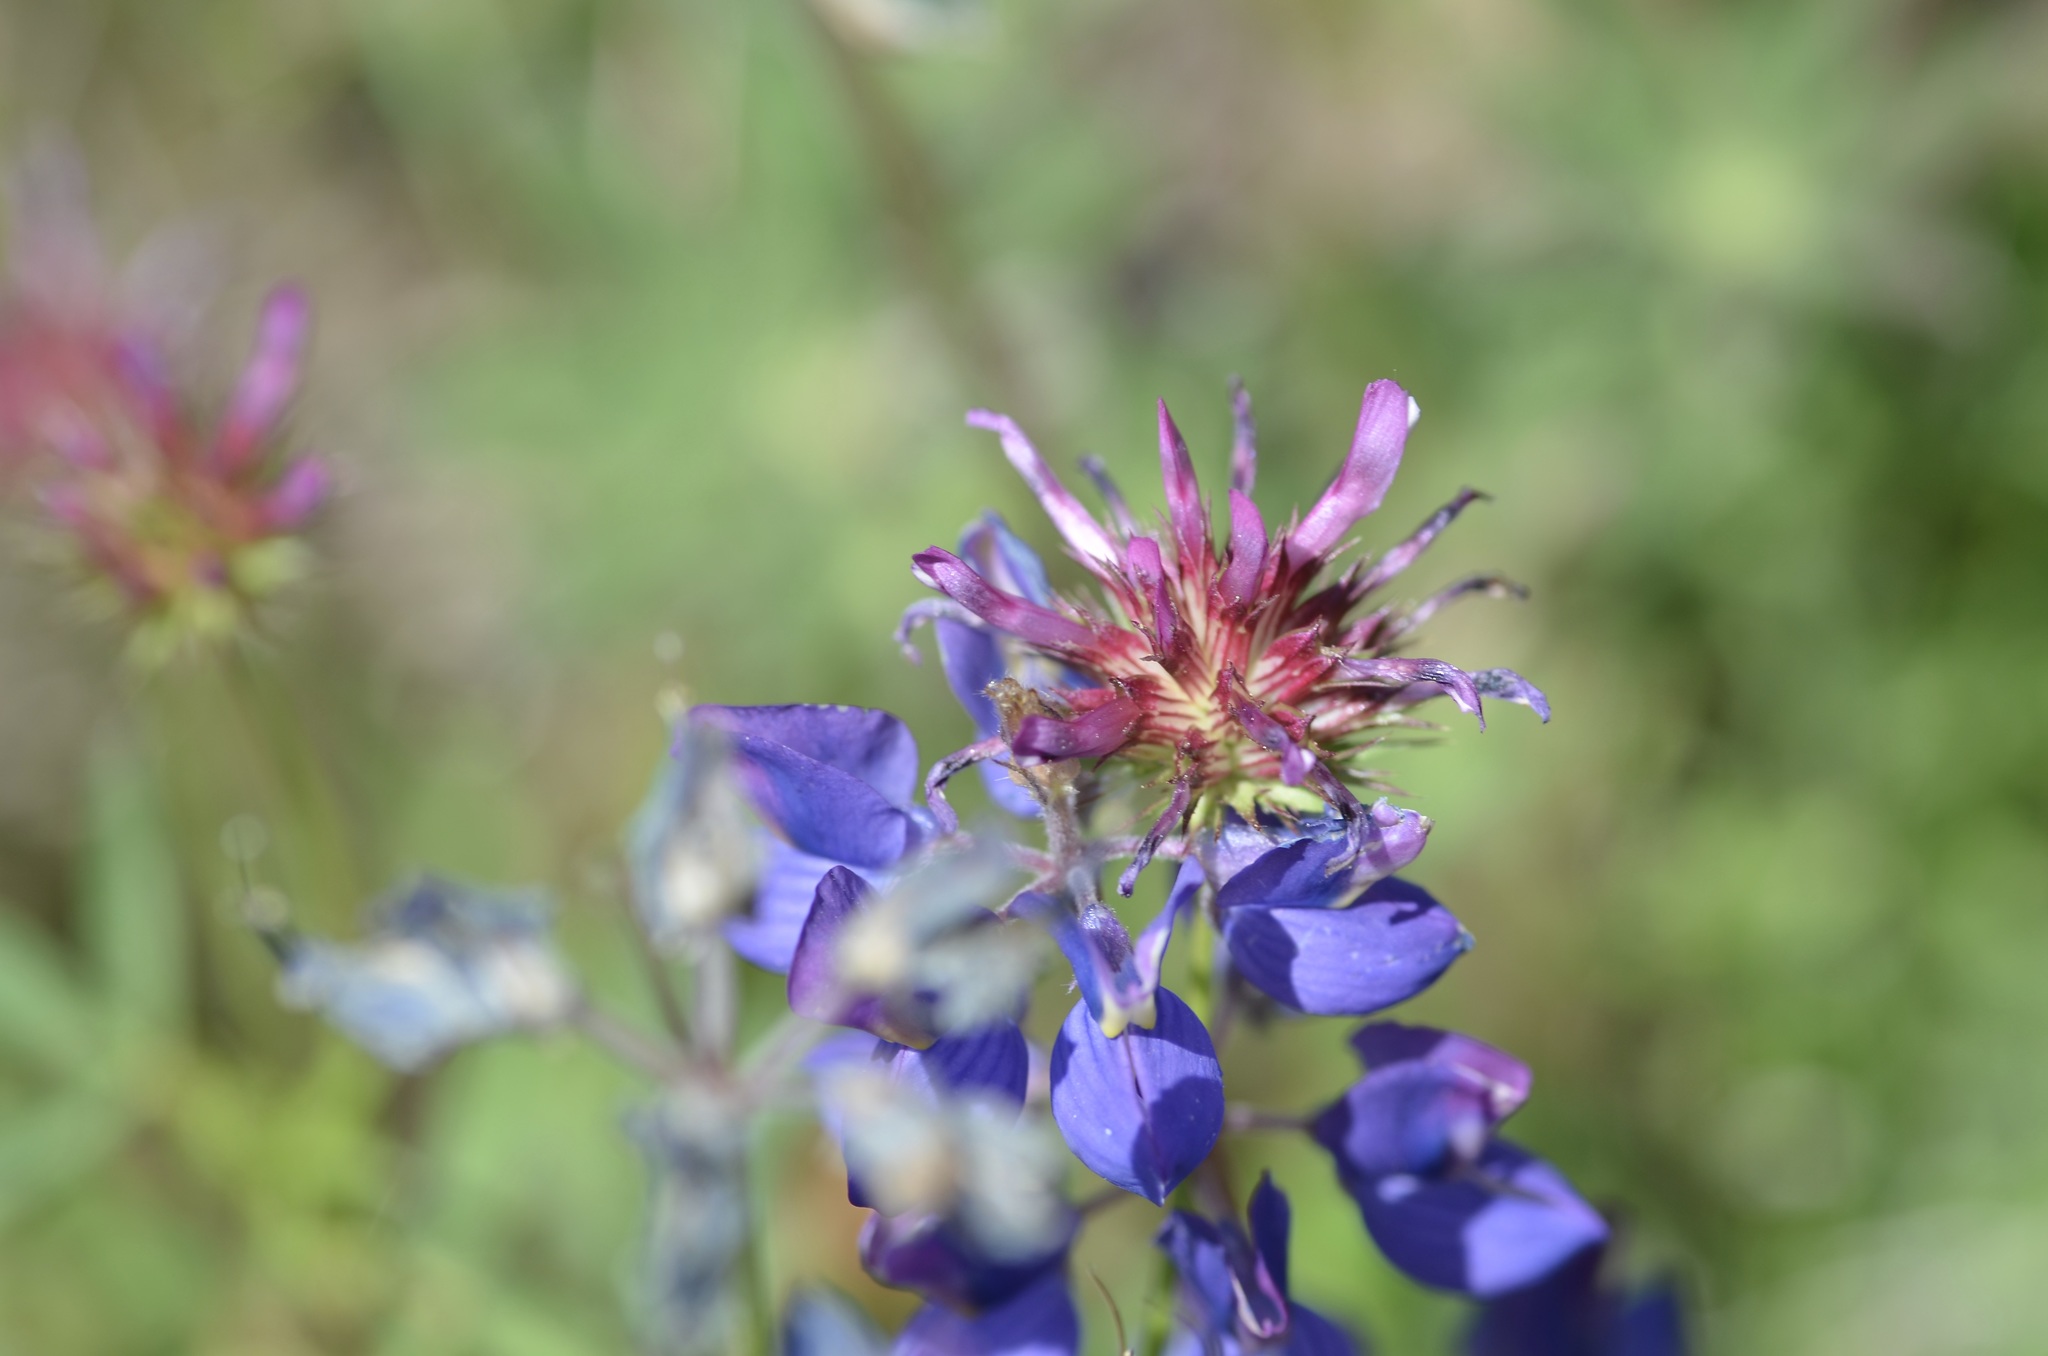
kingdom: Plantae
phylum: Tracheophyta
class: Magnoliopsida
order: Fabales
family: Fabaceae
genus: Trifolium
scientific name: Trifolium willdenovii
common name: Tomcat clover
